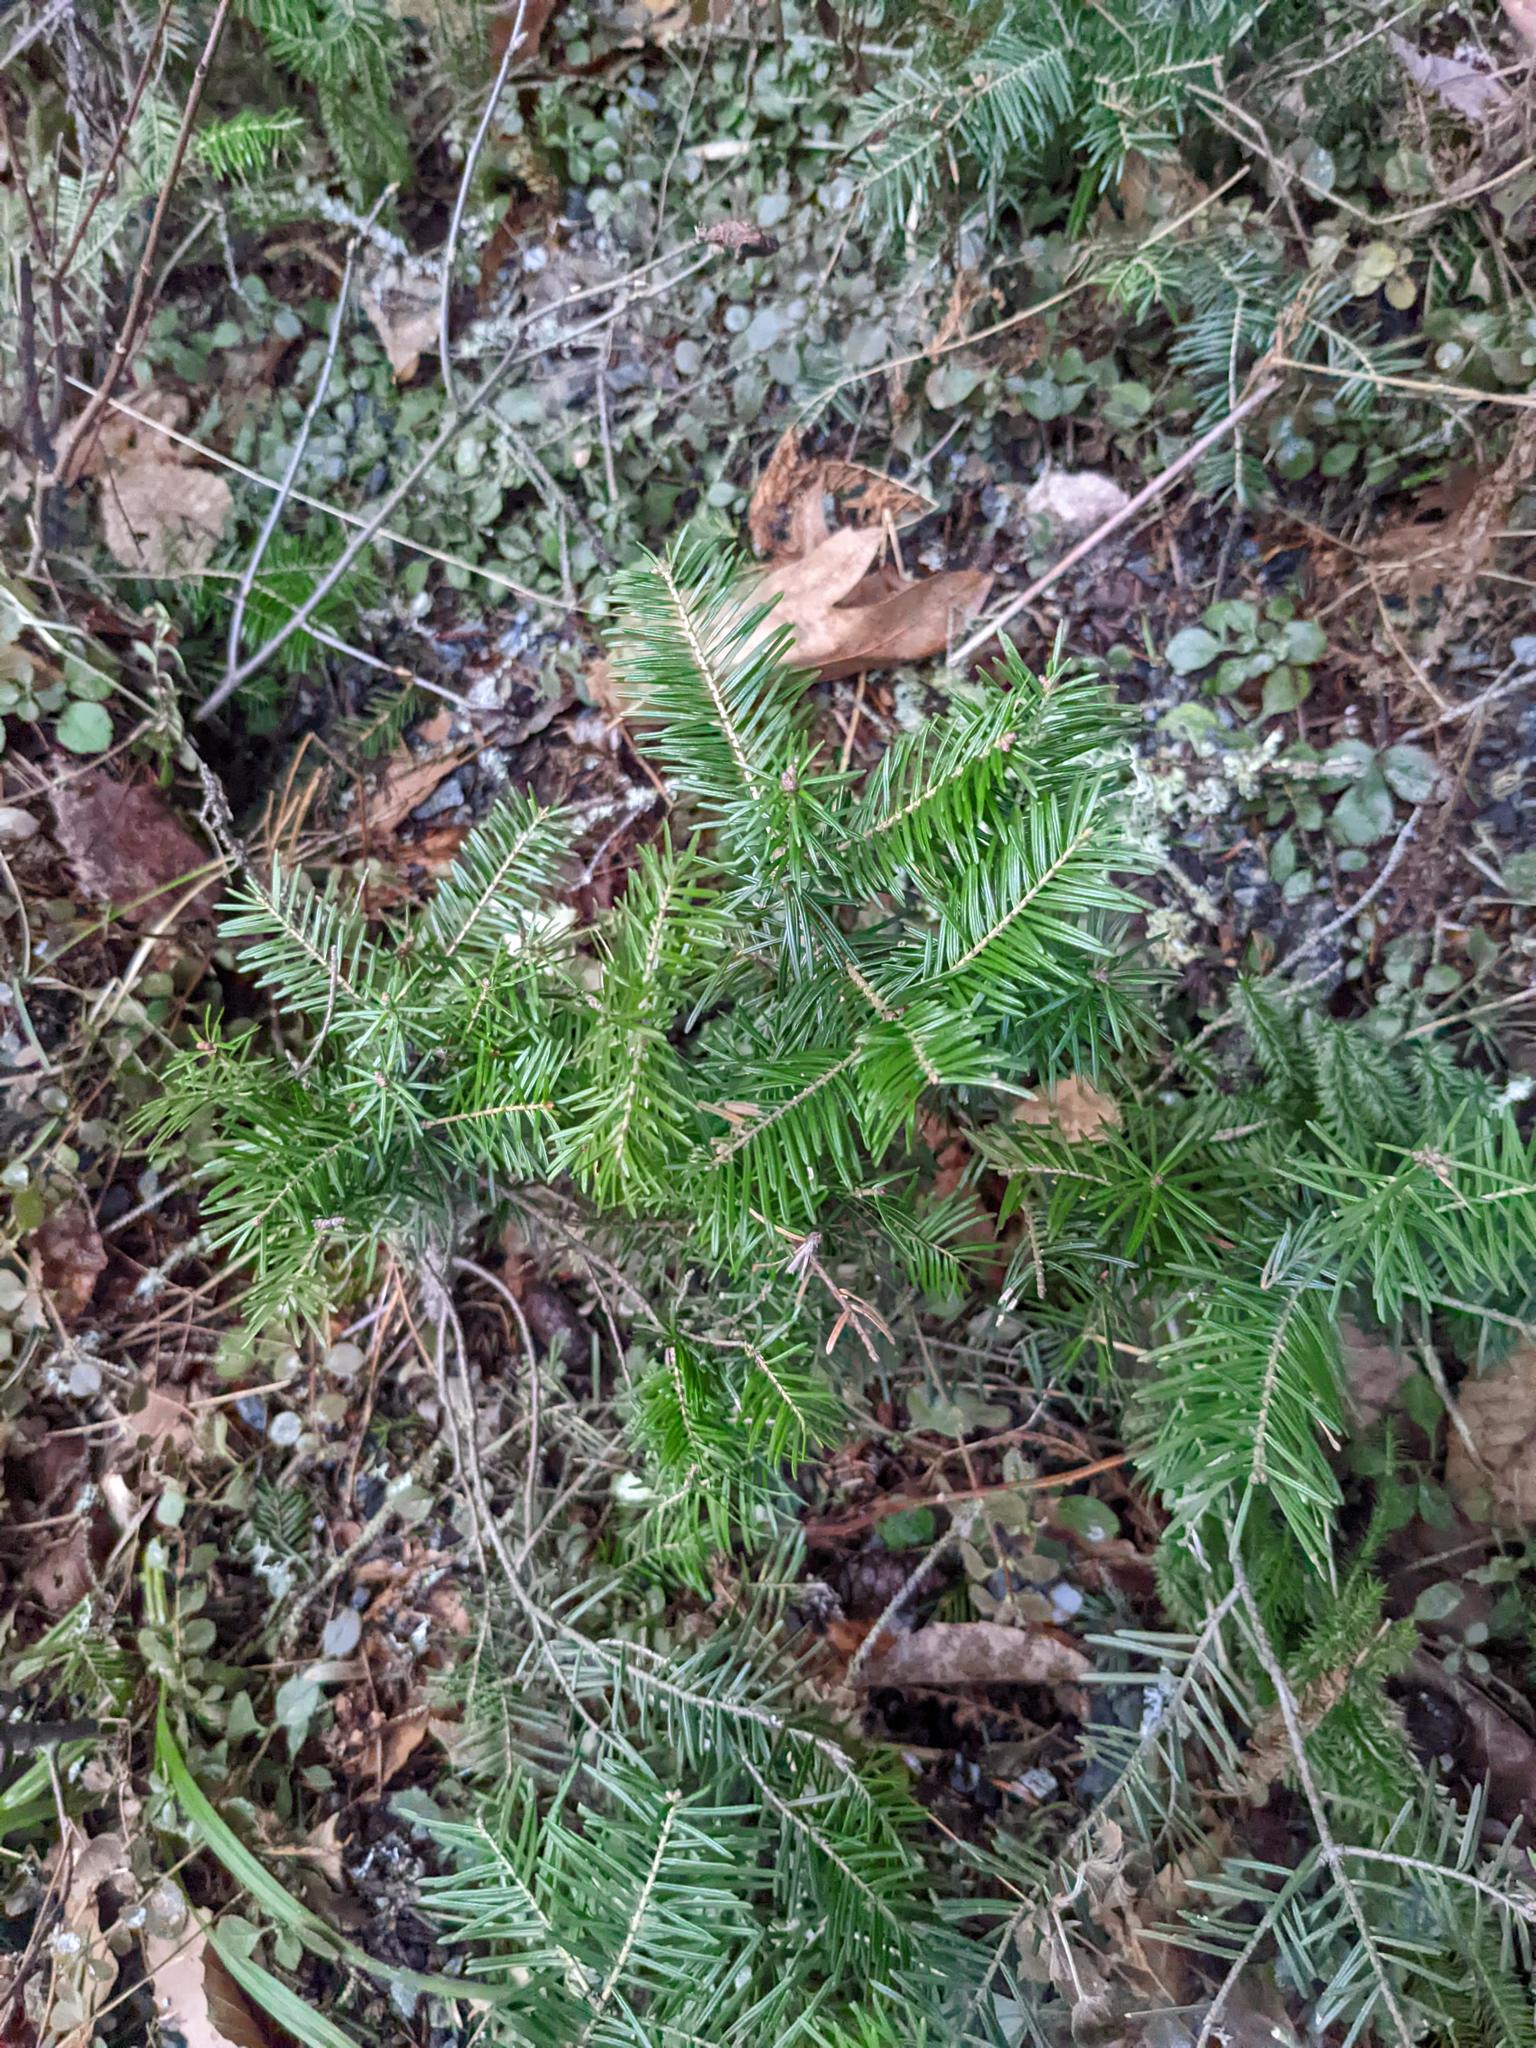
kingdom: Plantae
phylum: Tracheophyta
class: Pinopsida
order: Pinales
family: Pinaceae
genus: Abies
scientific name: Abies balsamea
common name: Balsam fir
